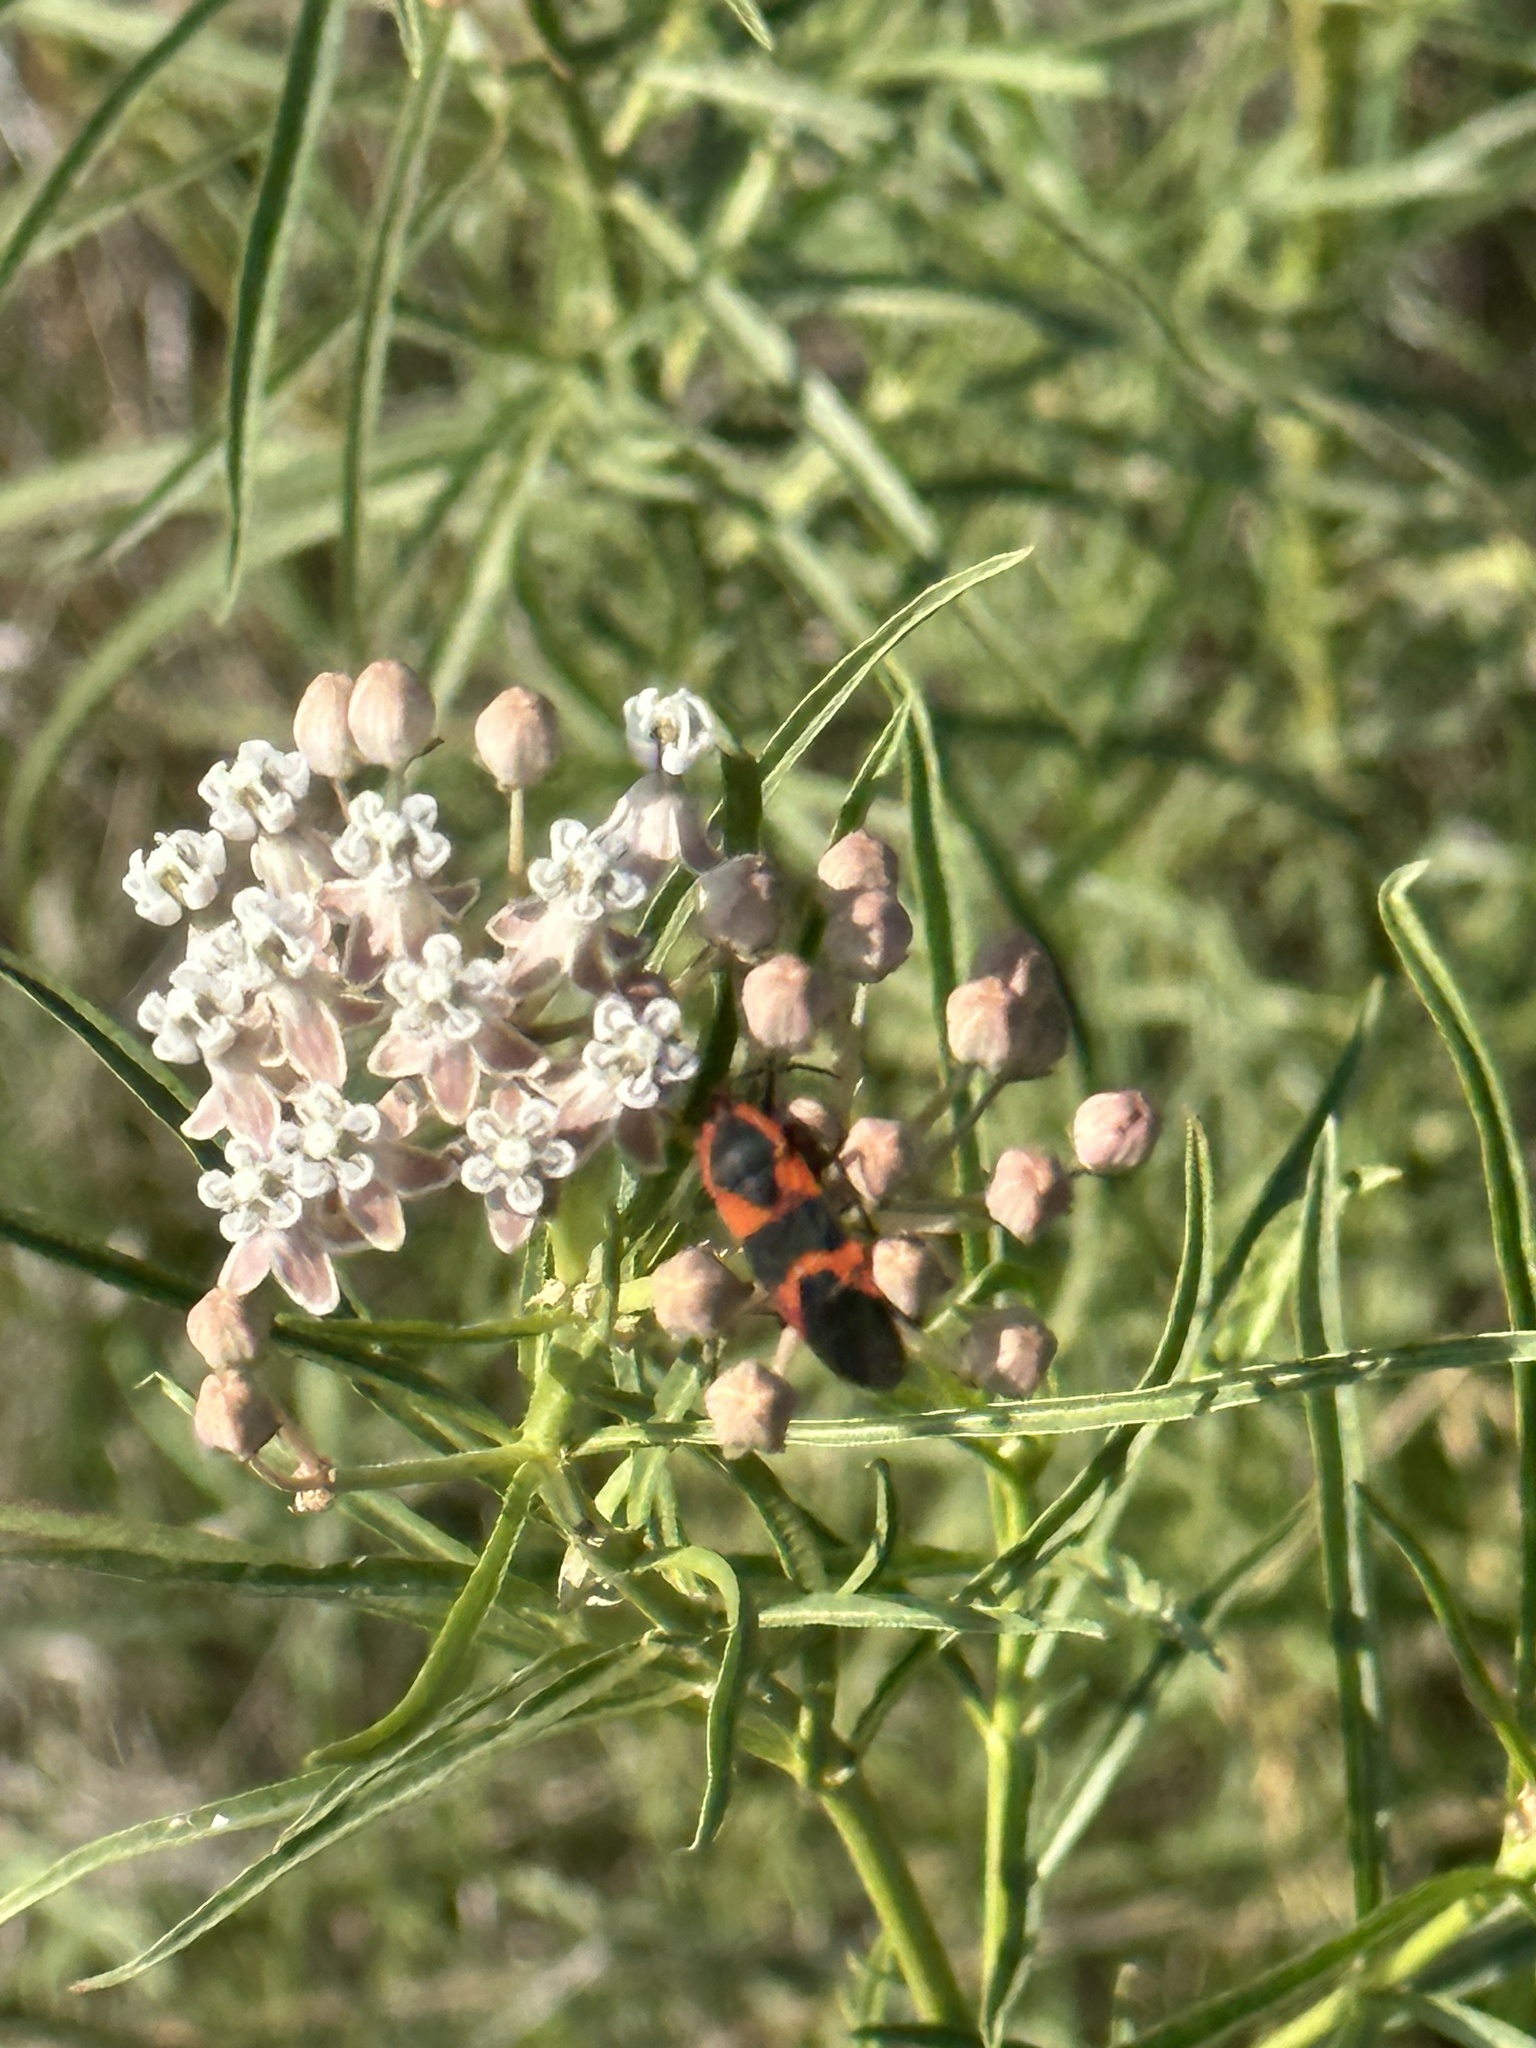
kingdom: Plantae
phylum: Tracheophyta
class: Magnoliopsida
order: Gentianales
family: Apocynaceae
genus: Asclepias
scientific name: Asclepias fascicularis
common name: Mexican milkweed
